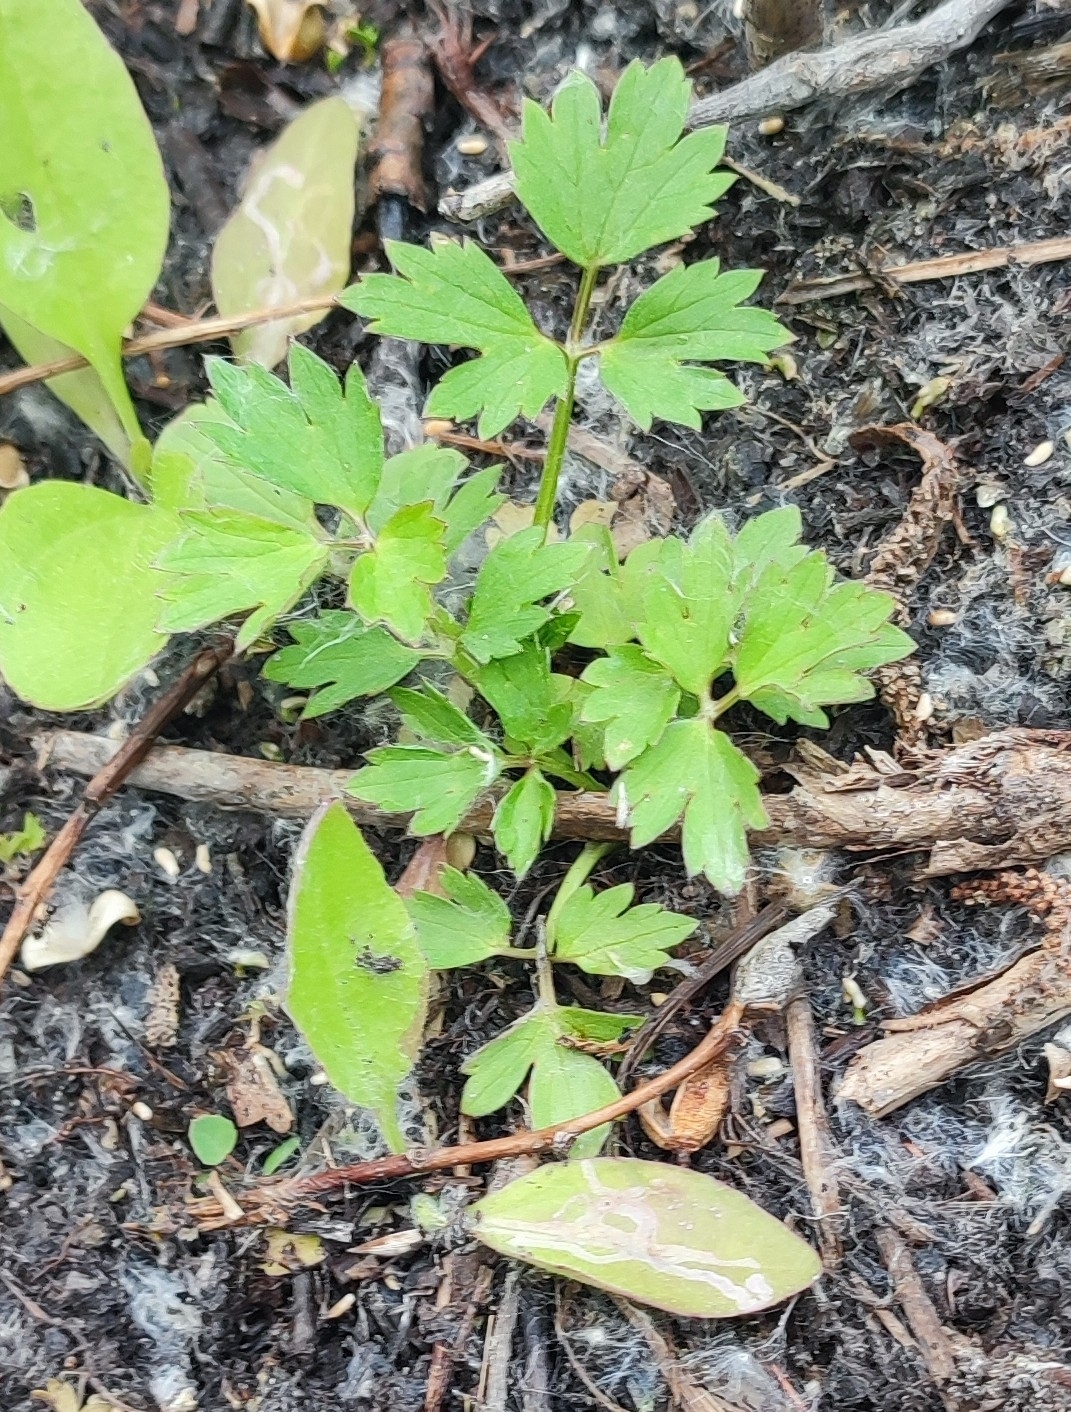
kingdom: Plantae
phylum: Tracheophyta
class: Magnoliopsida
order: Ranunculales
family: Ranunculaceae
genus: Ranunculus
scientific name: Ranunculus repens
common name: Creeping buttercup
